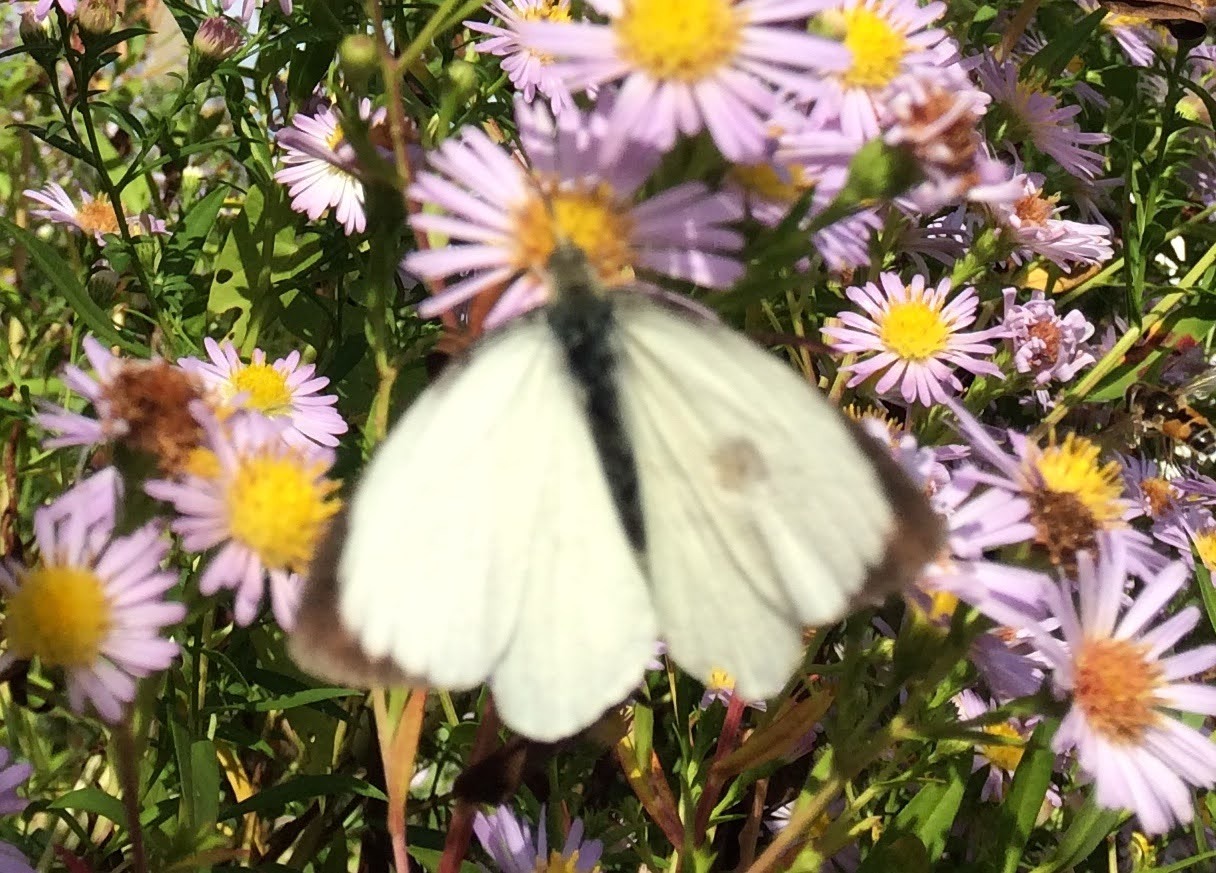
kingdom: Animalia
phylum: Arthropoda
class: Insecta
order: Lepidoptera
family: Pieridae
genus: Pieris
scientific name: Pieris brassicae
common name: Large white
